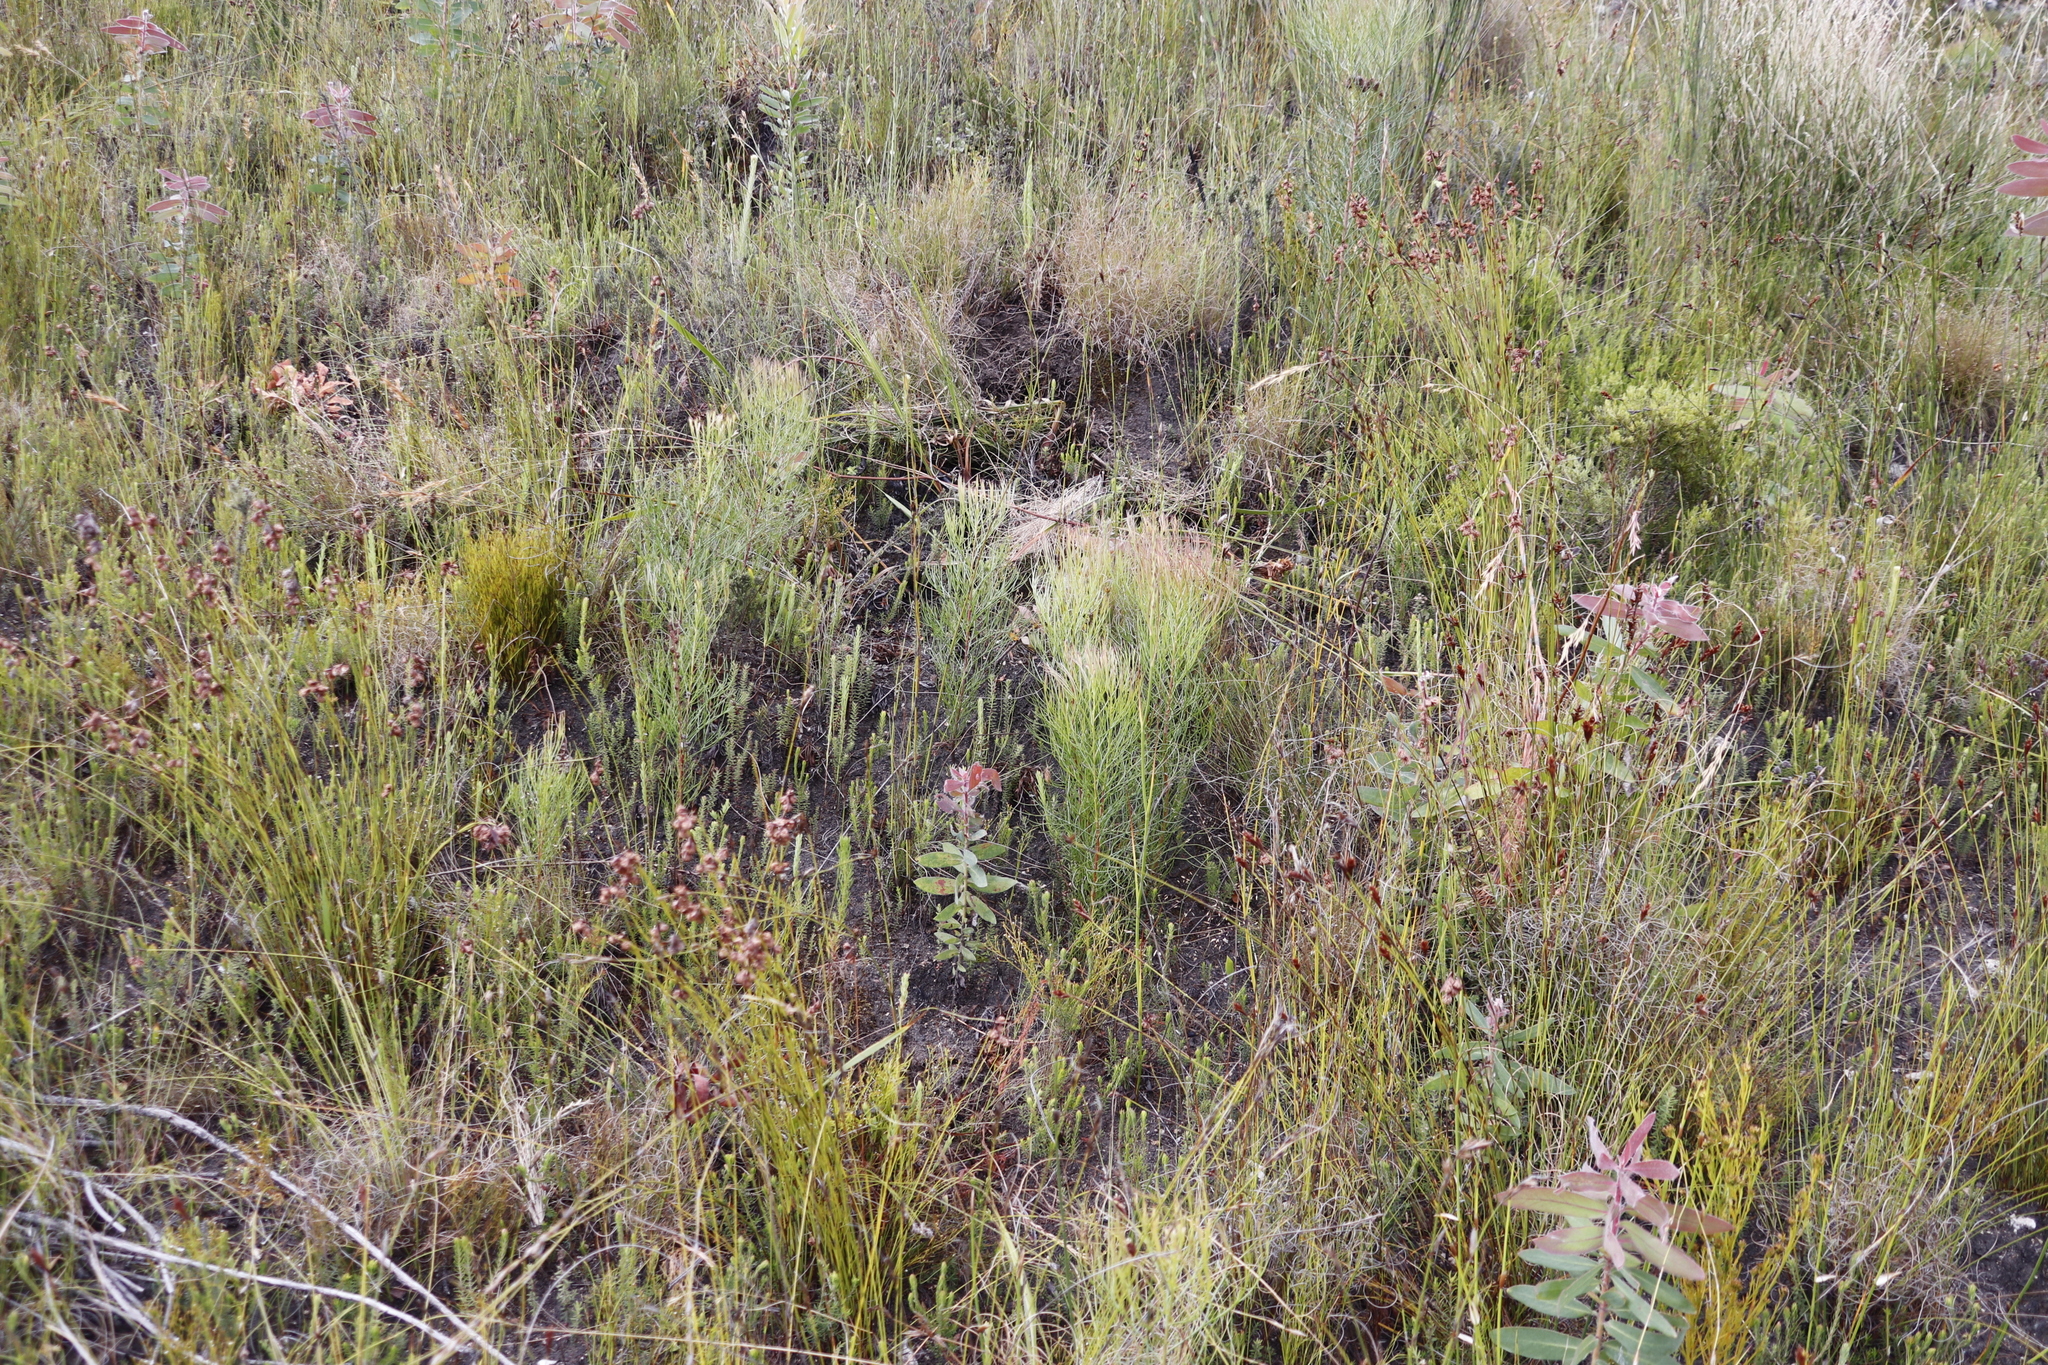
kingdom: Plantae
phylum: Tracheophyta
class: Magnoliopsida
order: Proteales
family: Proteaceae
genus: Serruria
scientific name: Serruria zeyheri
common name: Matchstick spiderhead
